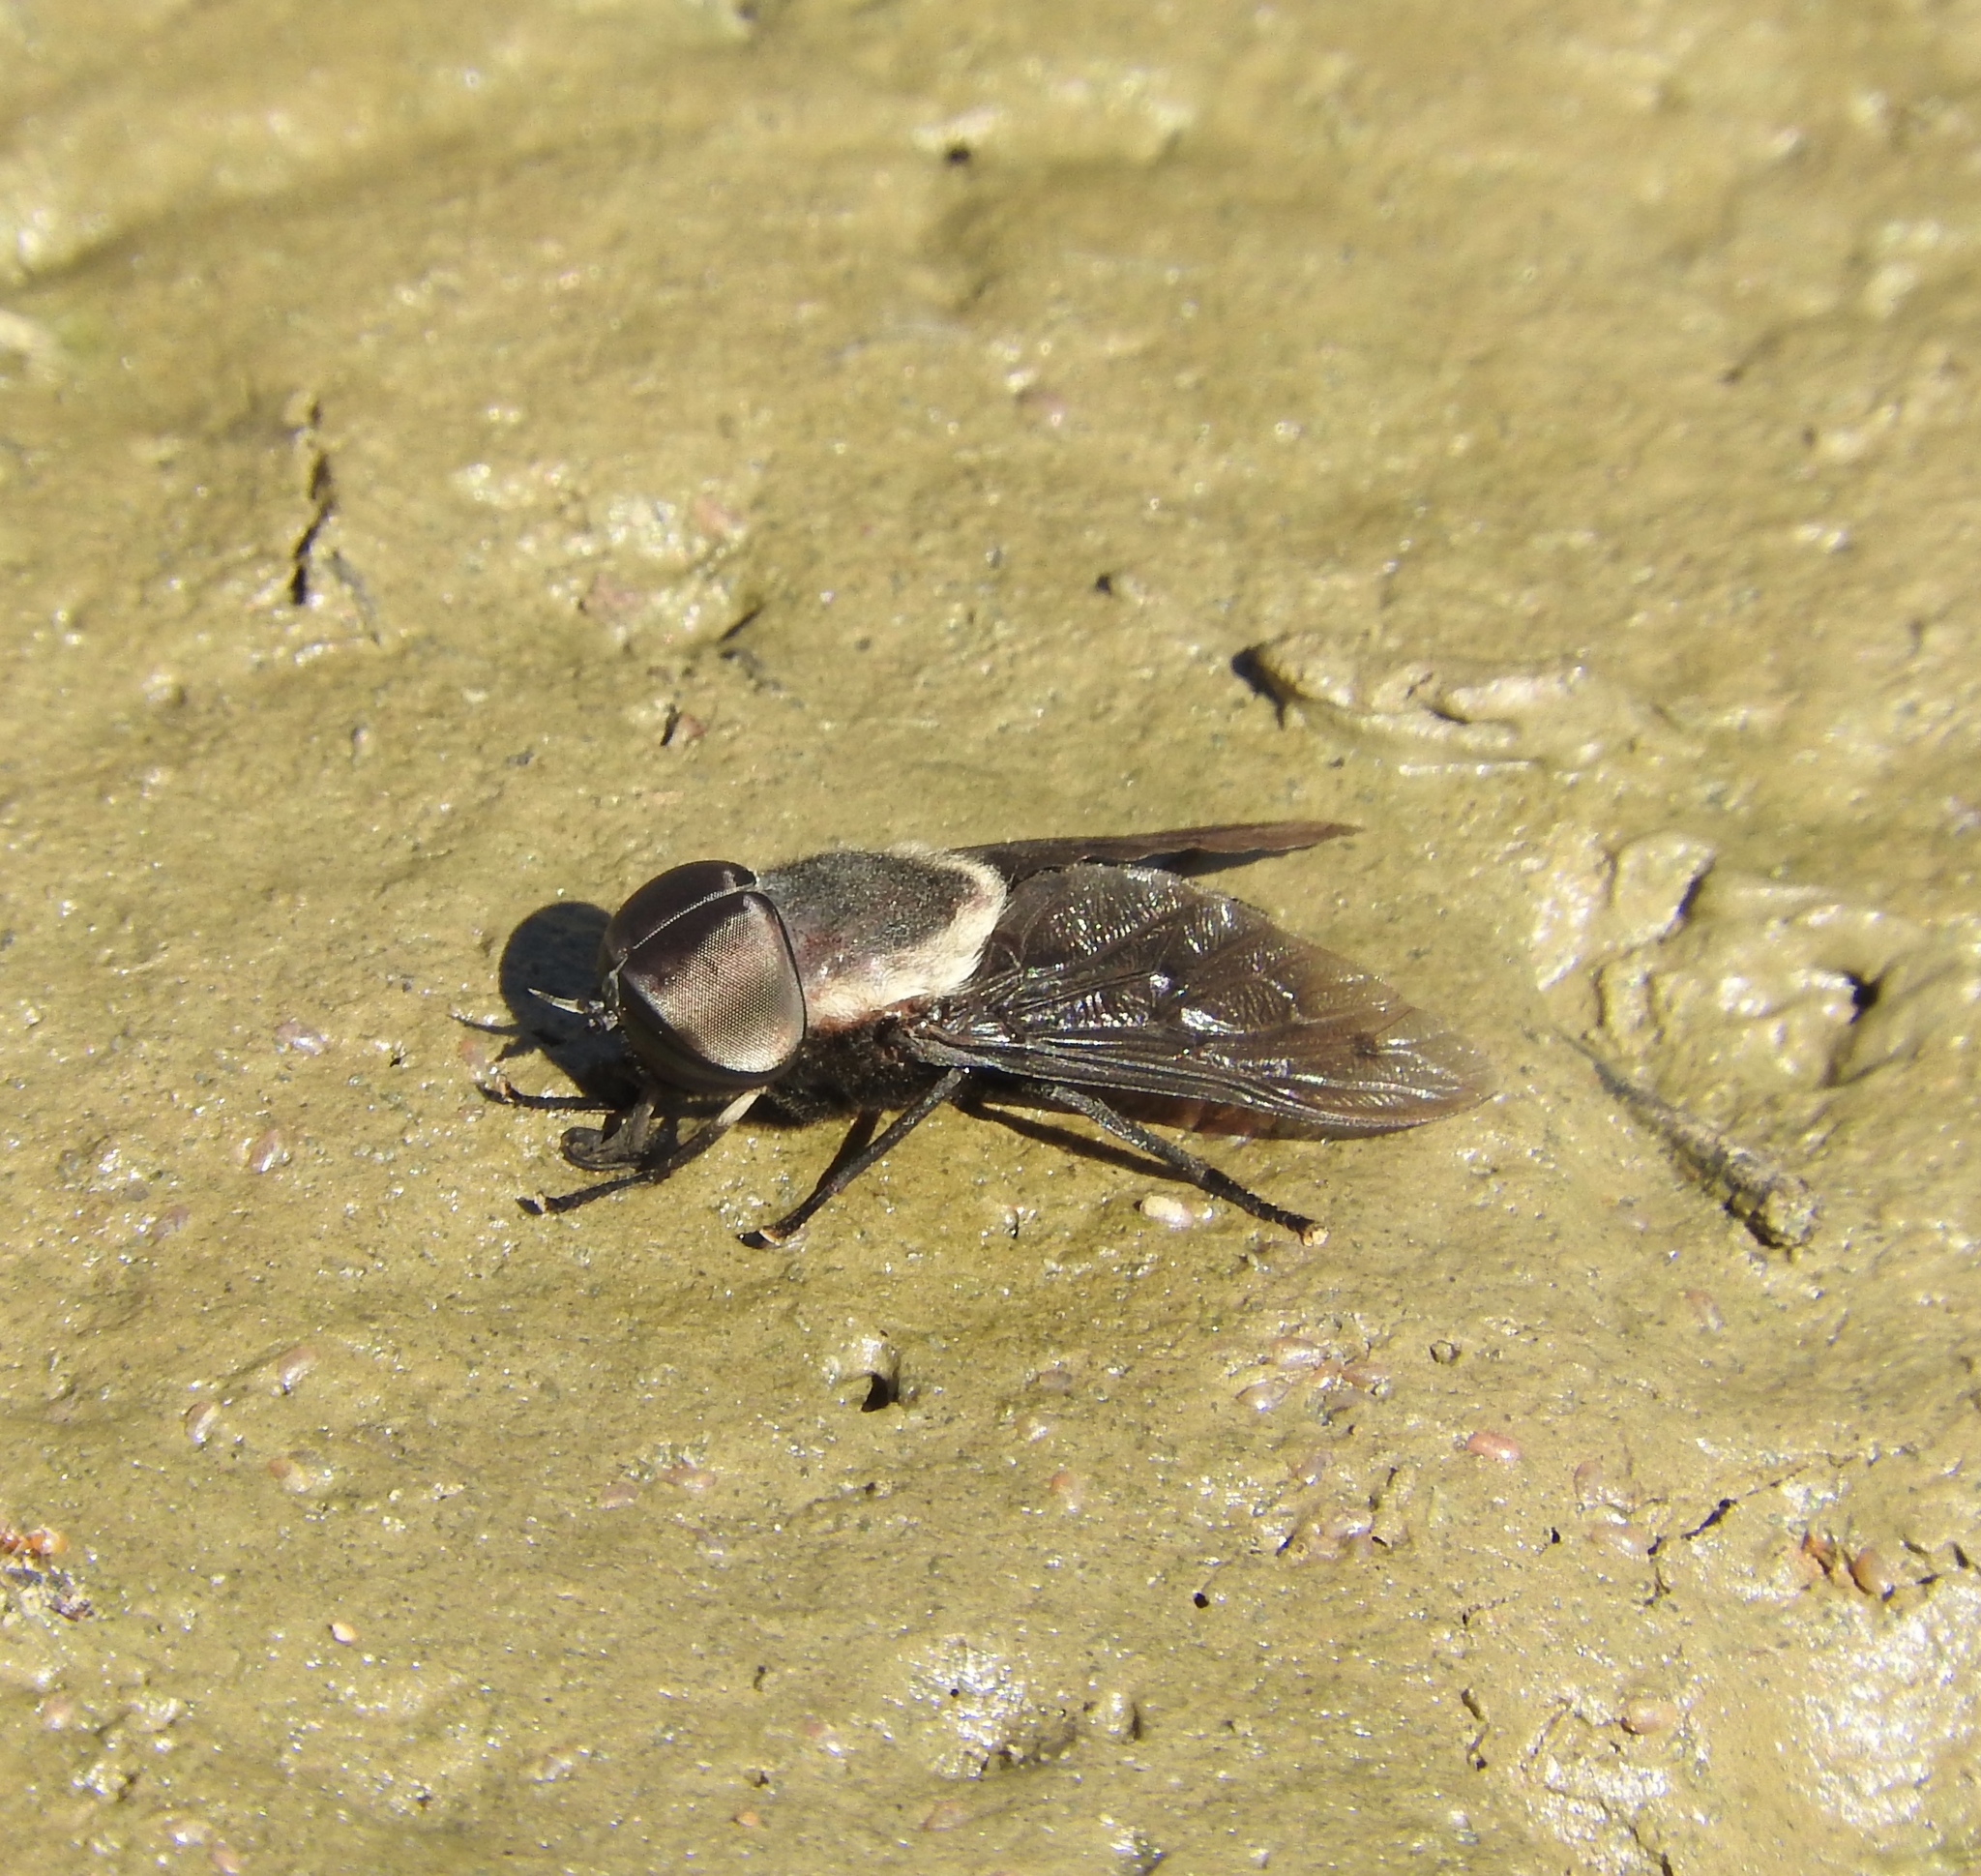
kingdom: Animalia
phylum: Arthropoda
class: Insecta
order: Diptera
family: Tabanidae
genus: Tabanus
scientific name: Tabanus punctifer
